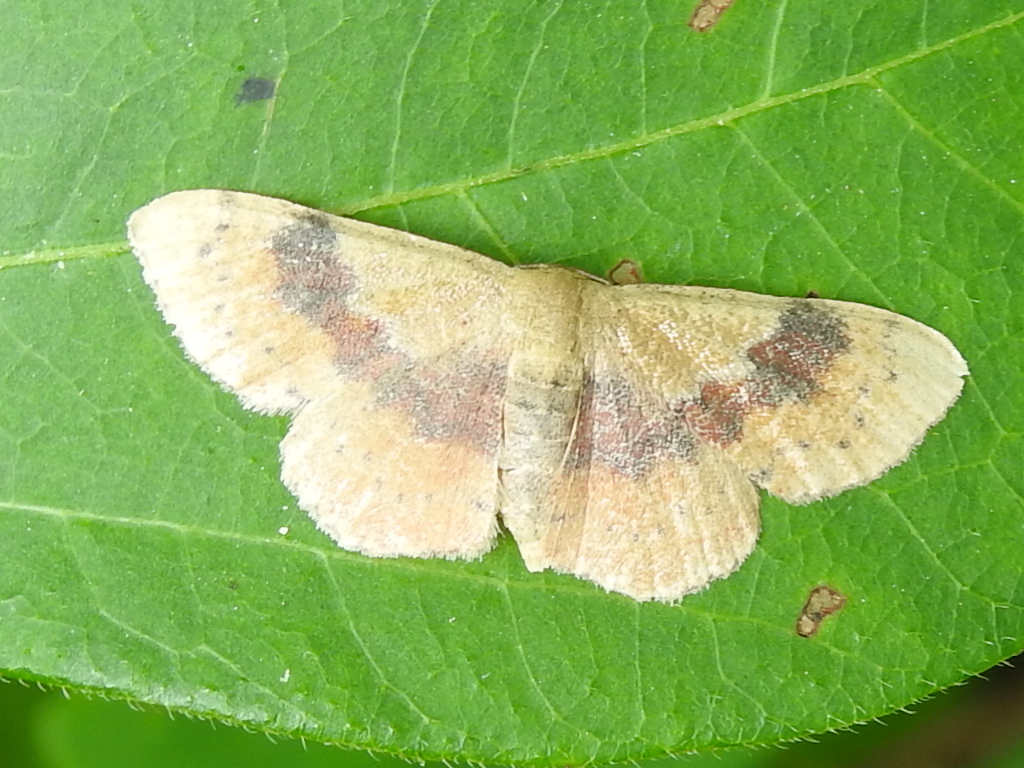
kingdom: Animalia
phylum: Arthropoda
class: Insecta
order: Lepidoptera
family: Geometridae
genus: Leptostales
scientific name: Leptostales ferruminaria
